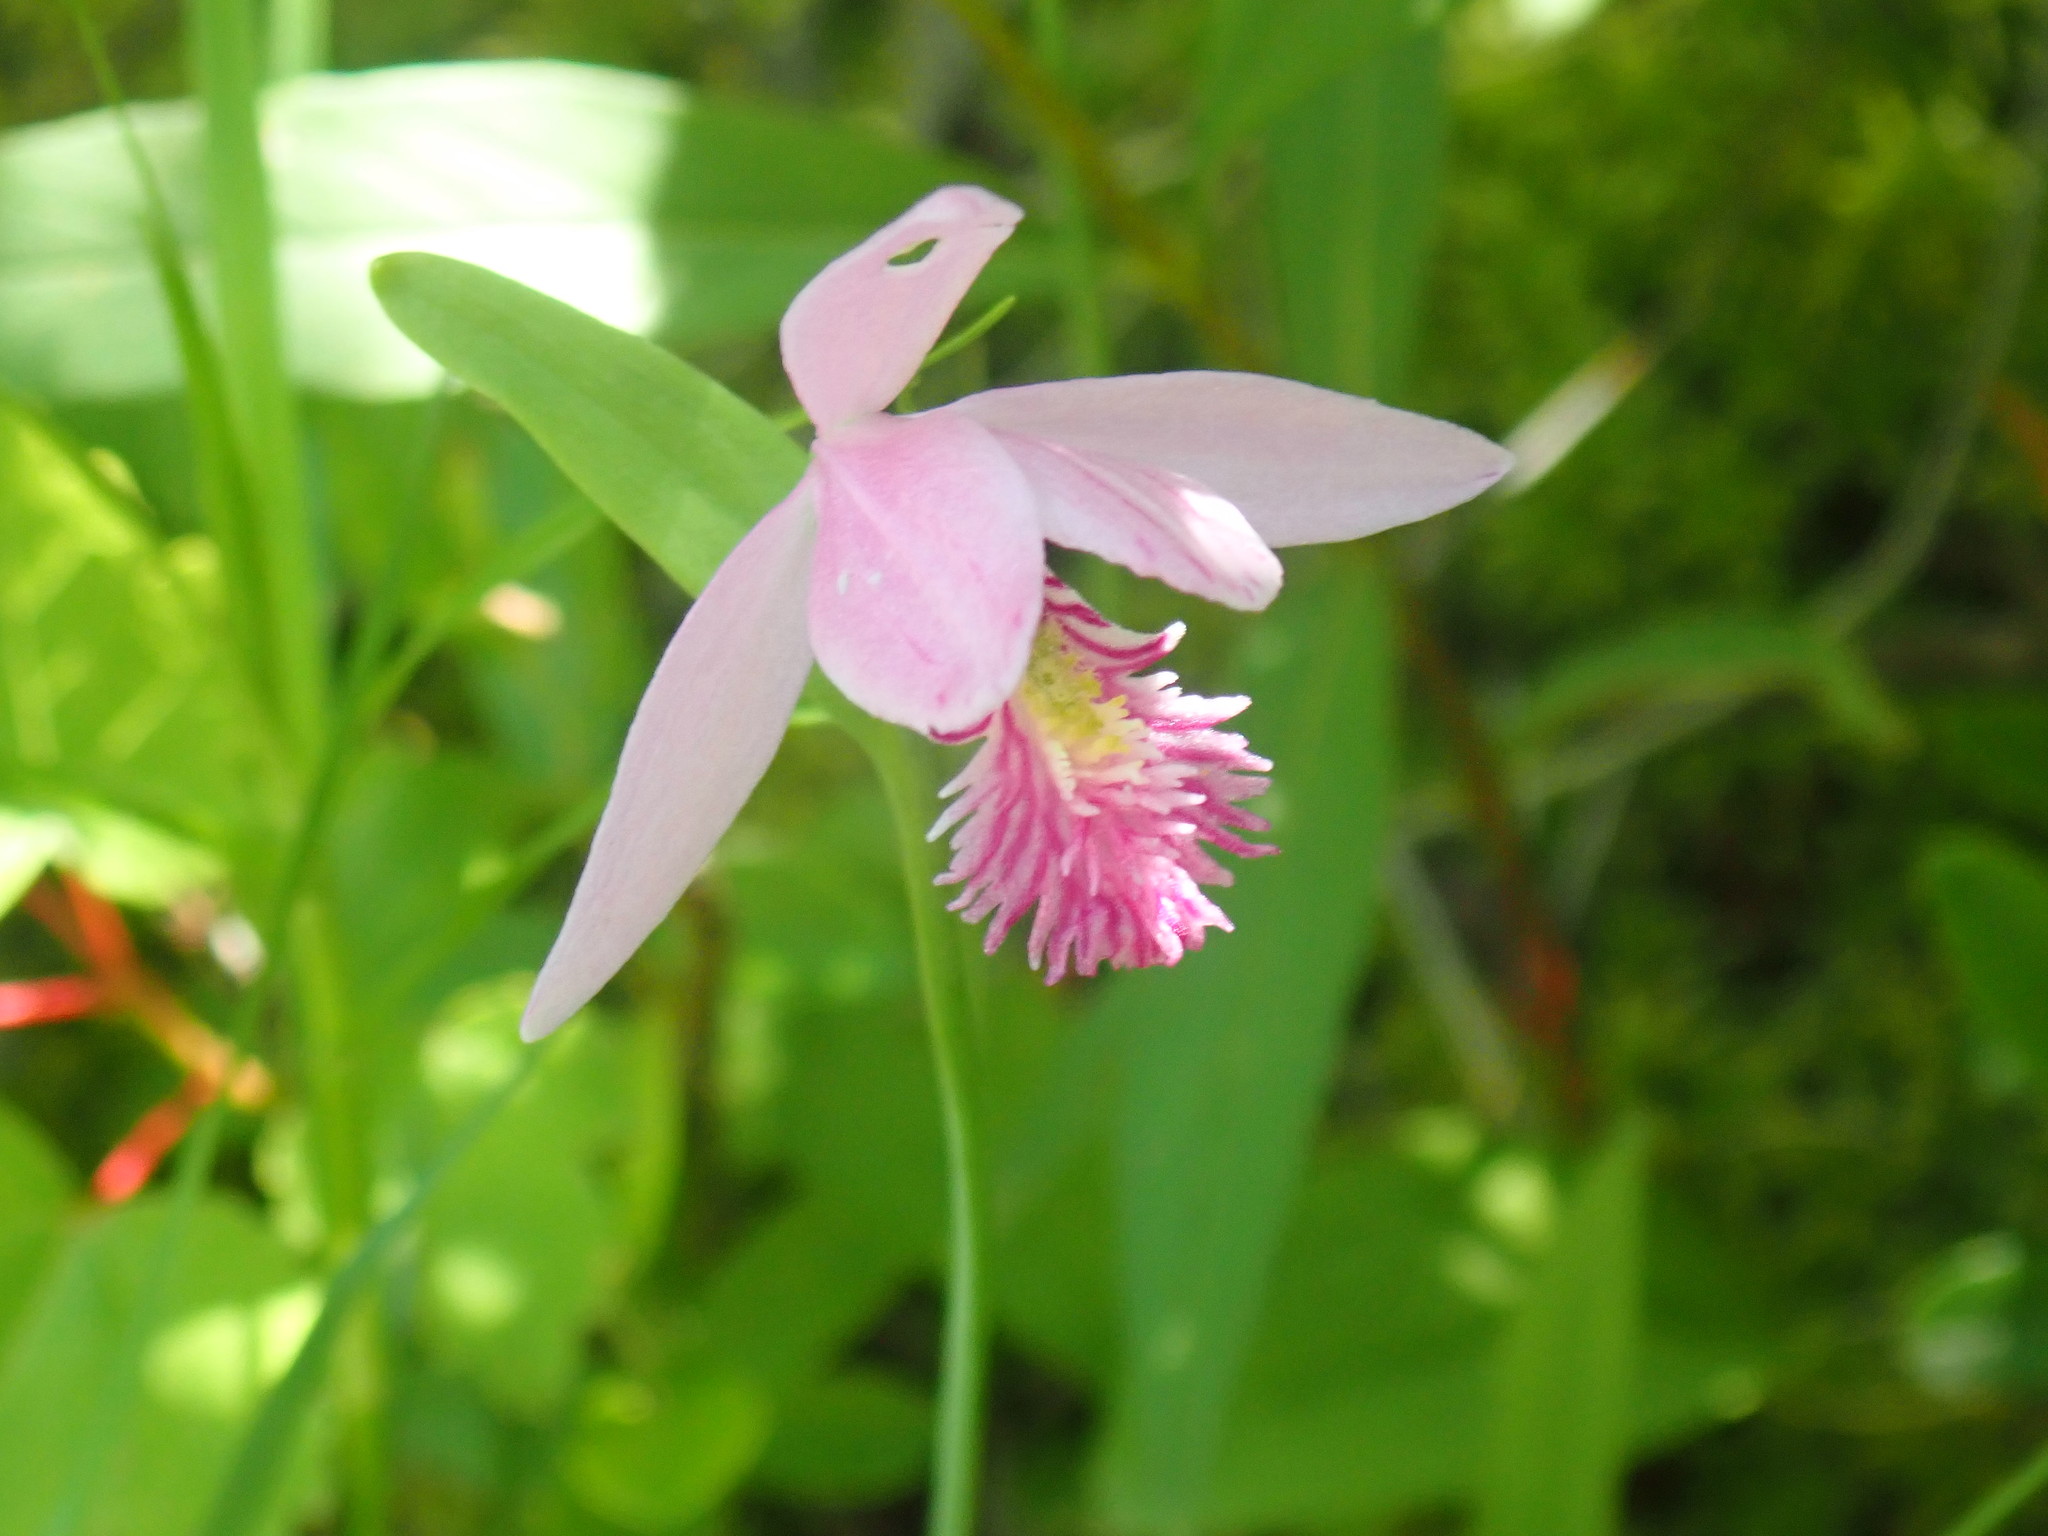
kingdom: Plantae
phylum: Tracheophyta
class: Liliopsida
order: Asparagales
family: Orchidaceae
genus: Pogonia
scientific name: Pogonia ophioglossoides
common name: Rose pogonia
